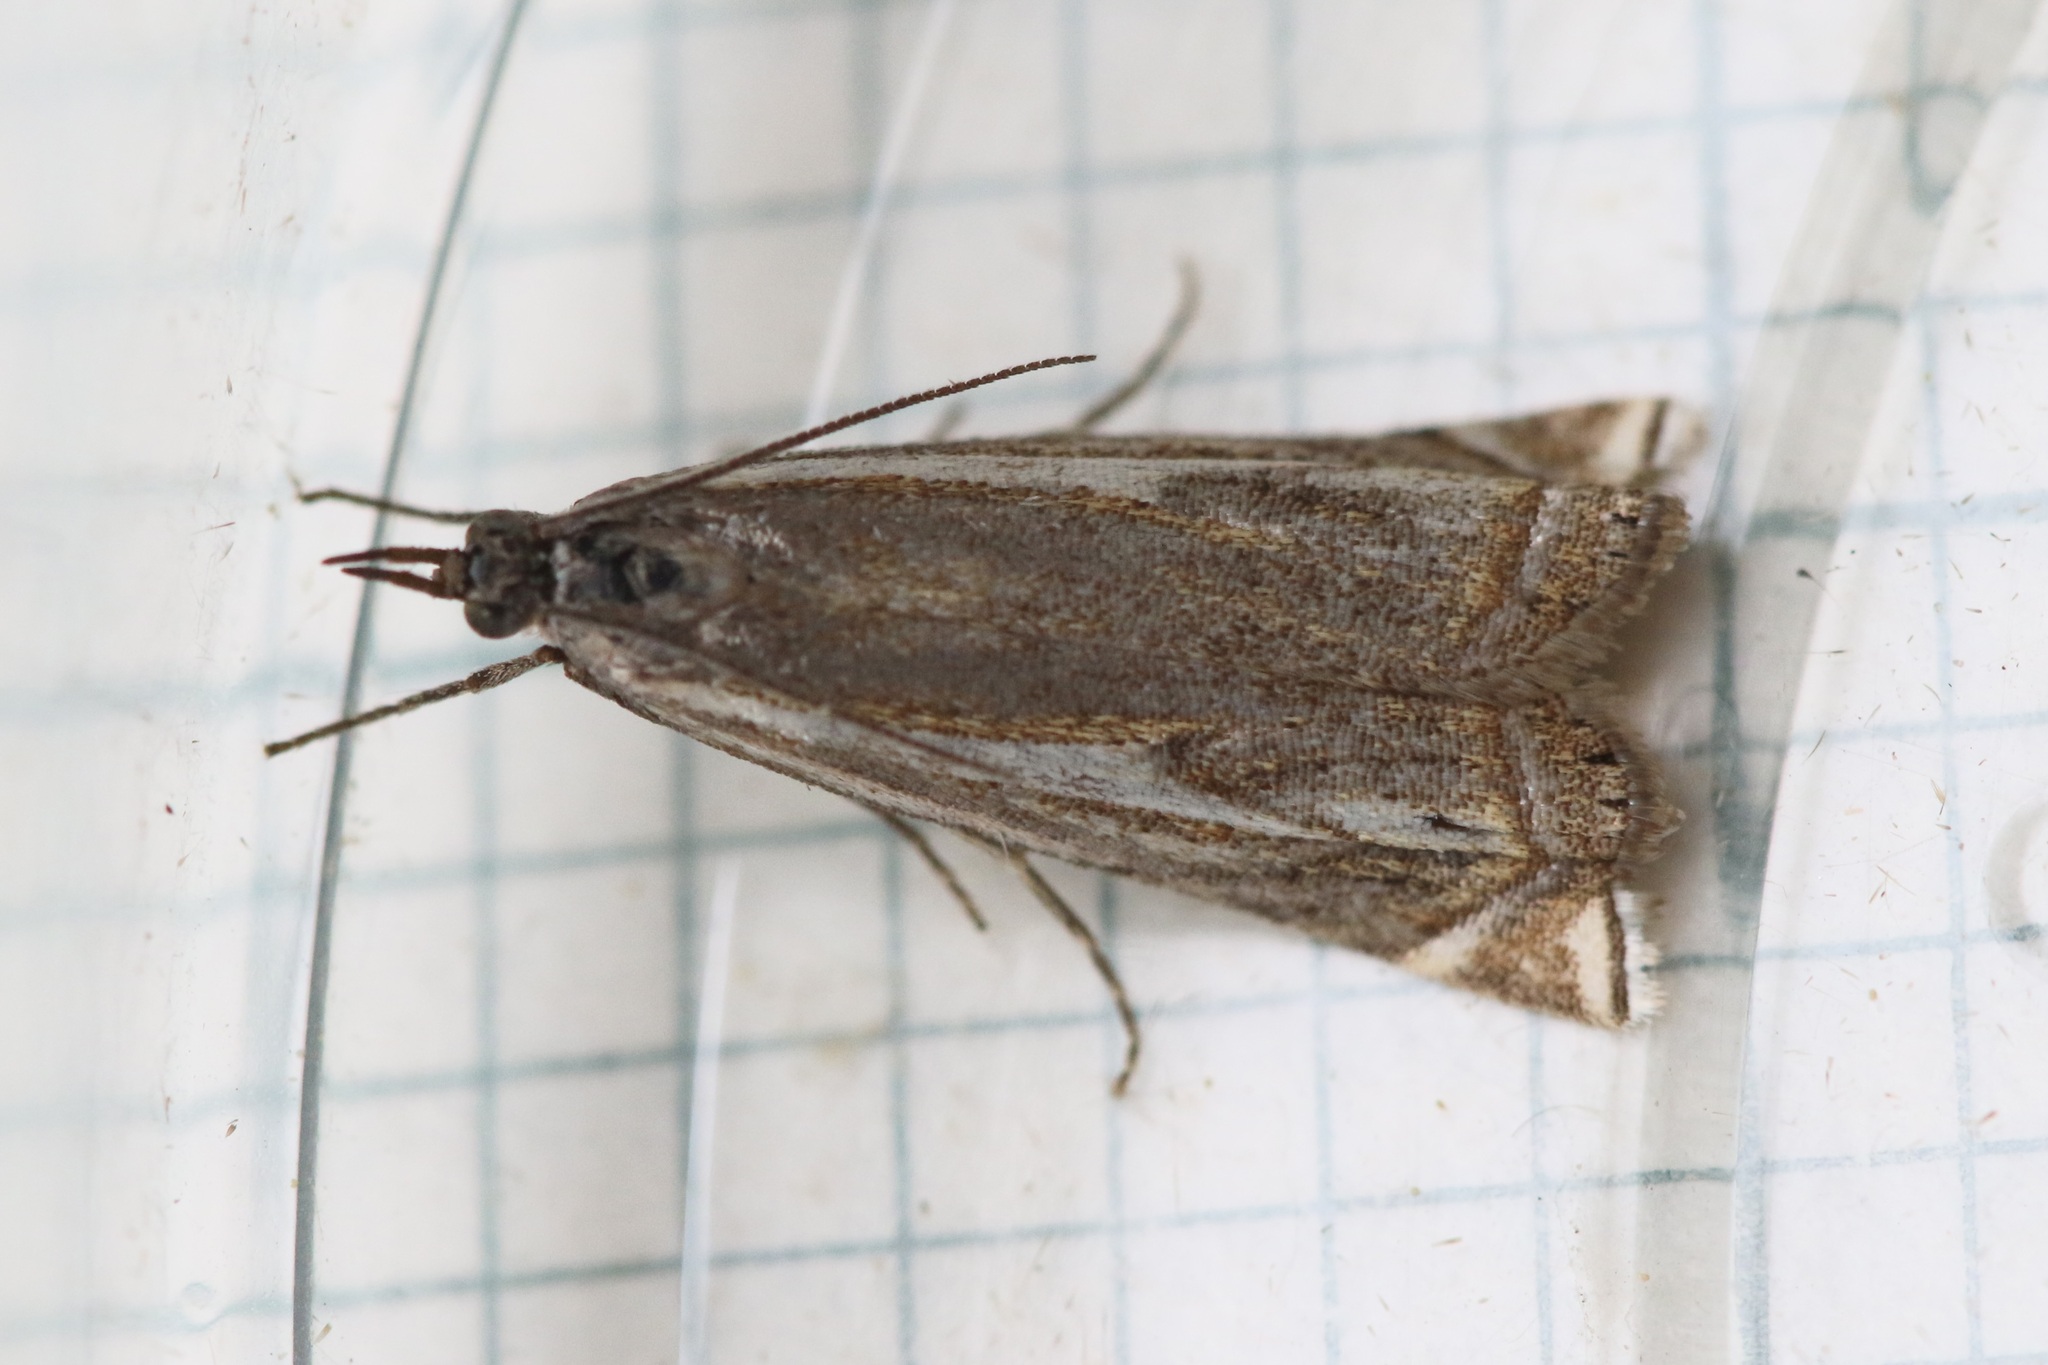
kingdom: Animalia
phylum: Arthropoda
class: Insecta
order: Lepidoptera
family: Crambidae
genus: Crambus
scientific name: Crambus nemorella
